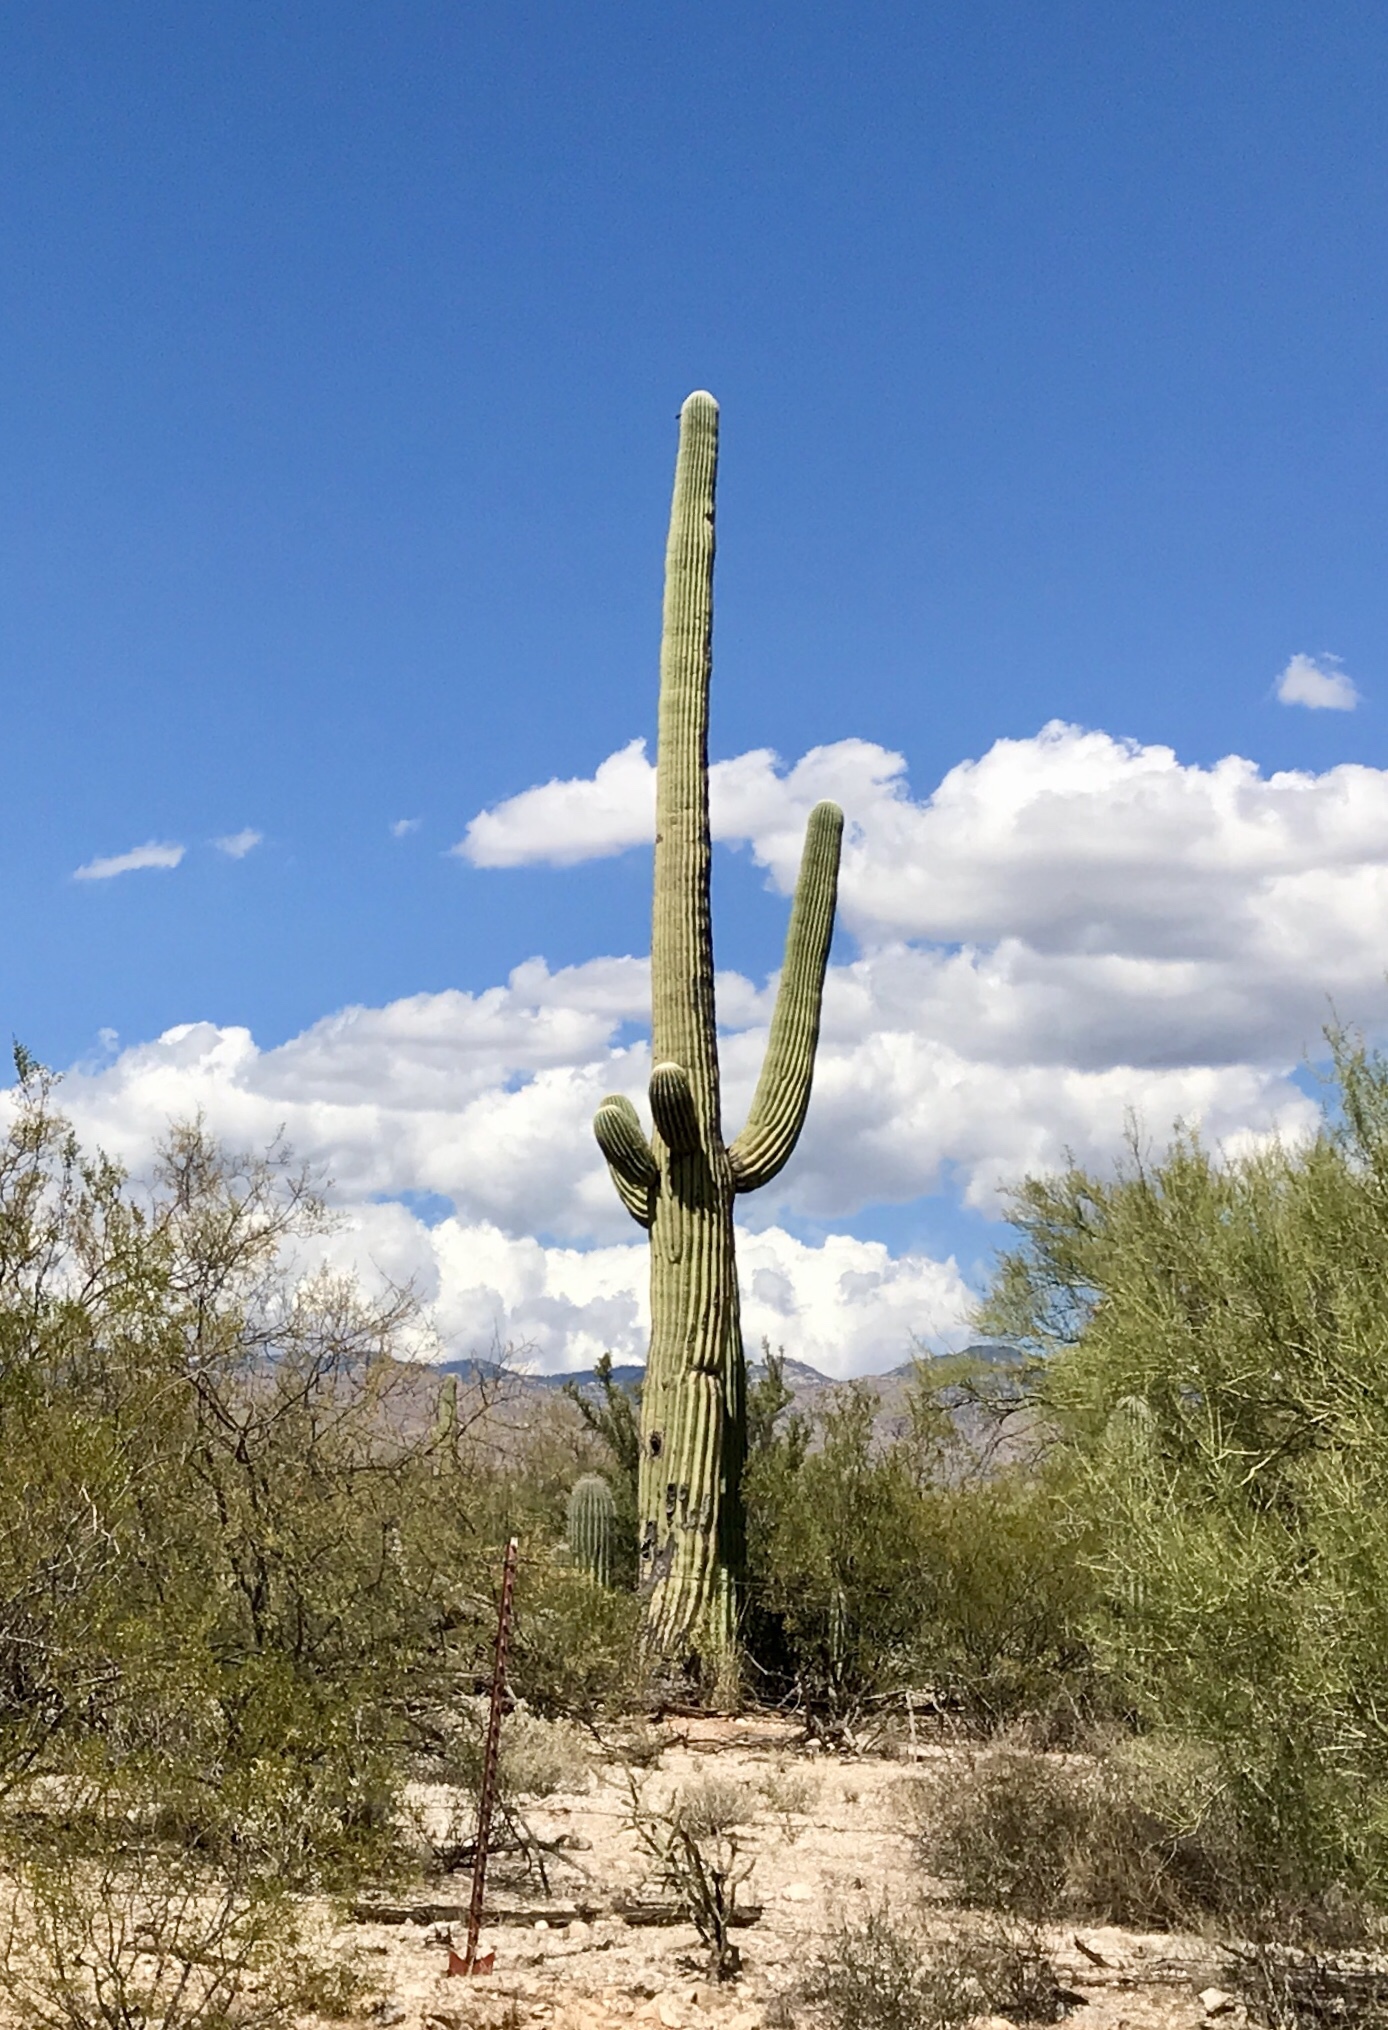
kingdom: Plantae
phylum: Tracheophyta
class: Magnoliopsida
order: Caryophyllales
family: Cactaceae
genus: Carnegiea
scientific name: Carnegiea gigantea
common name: Saguaro
